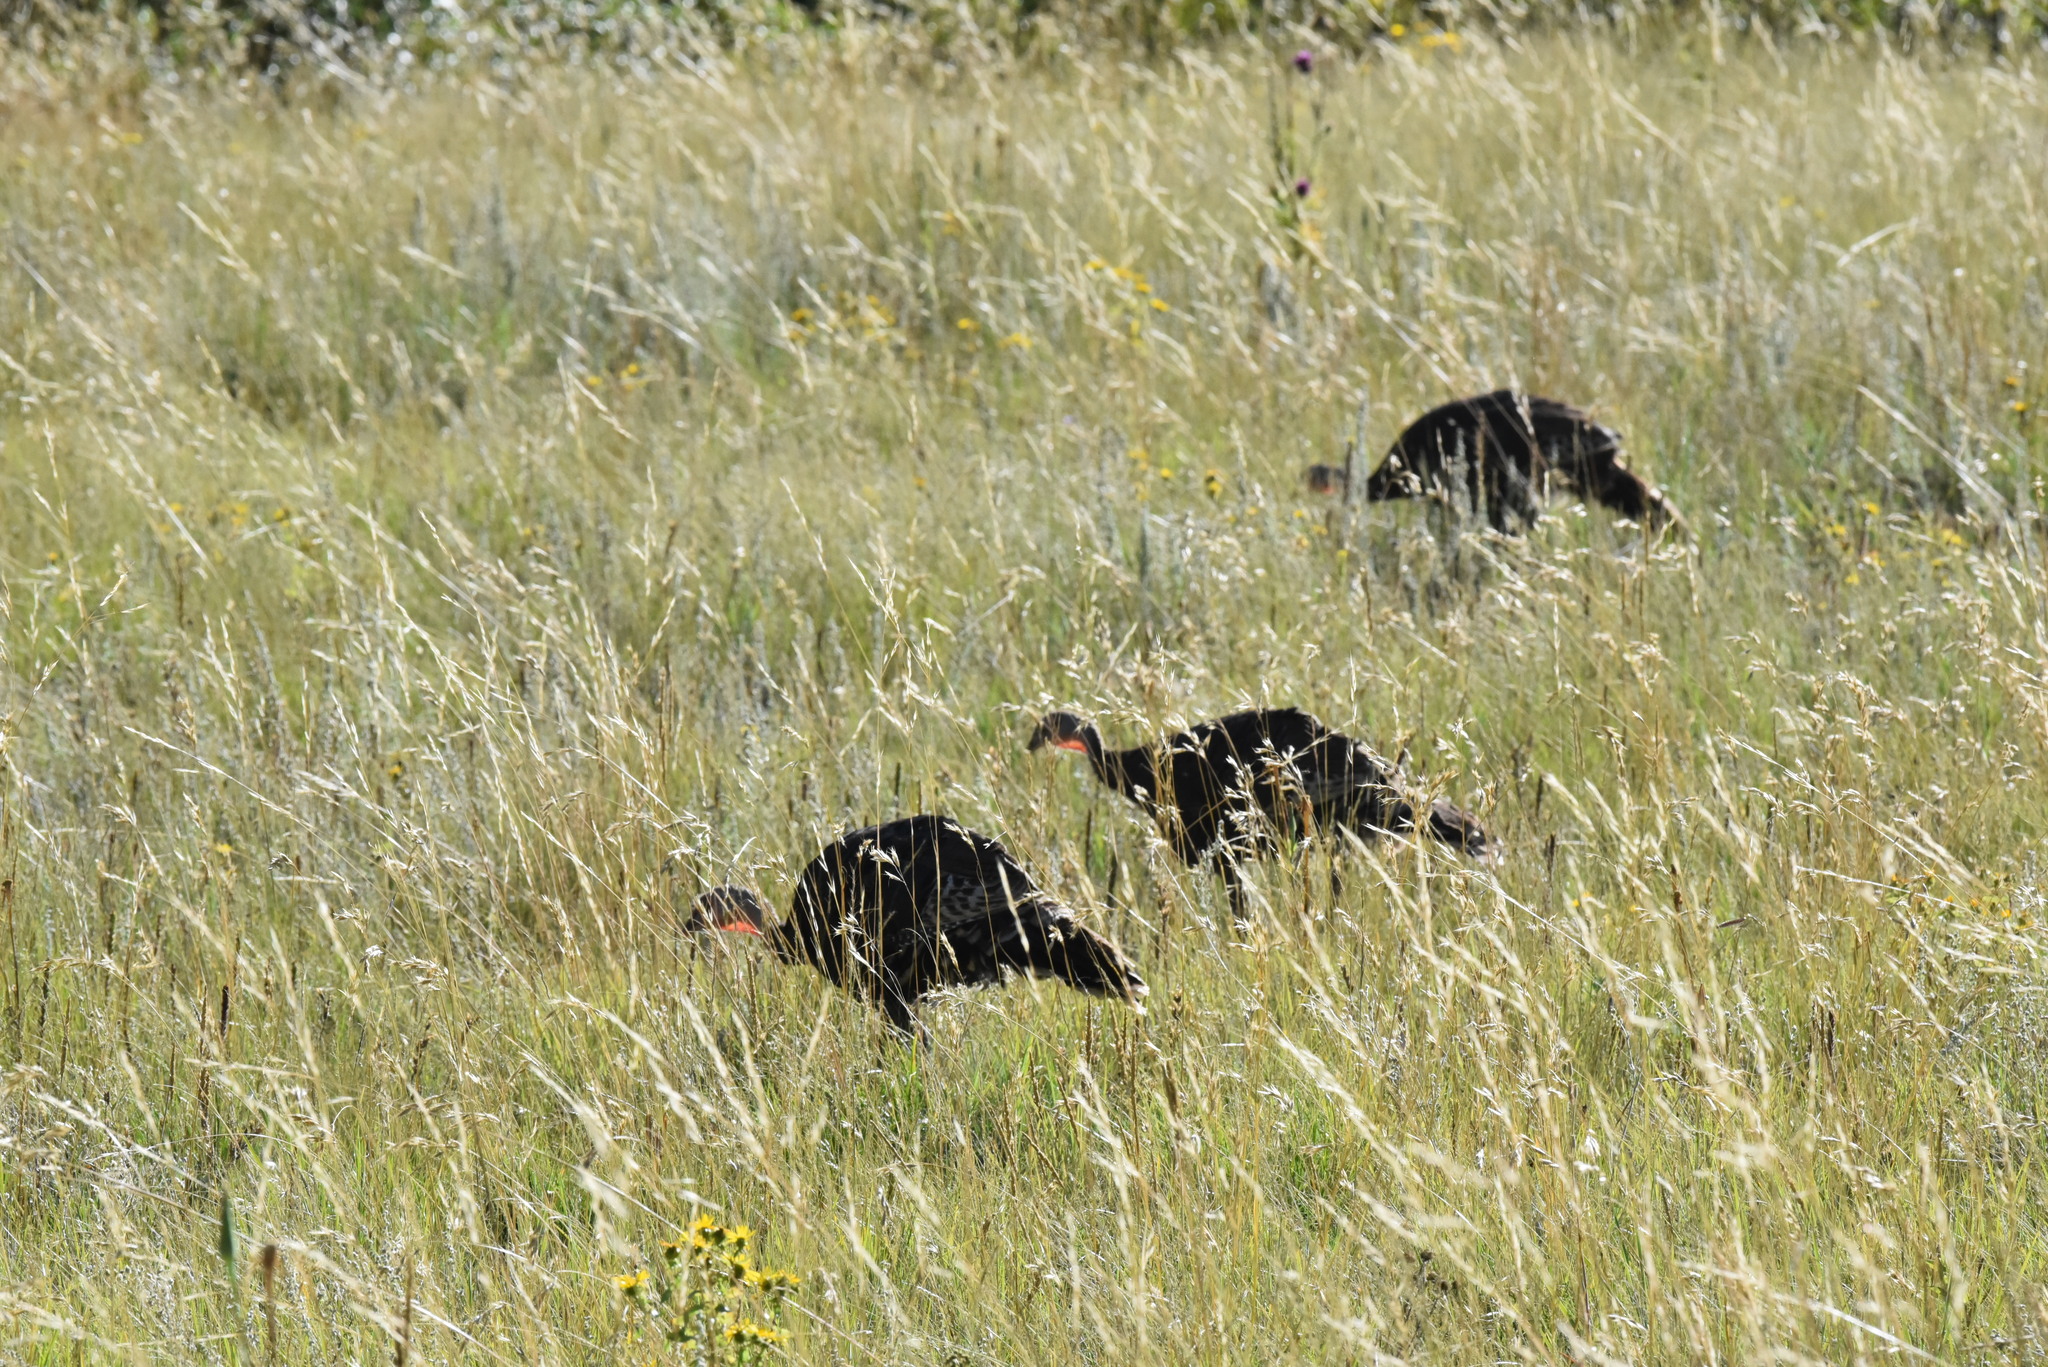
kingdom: Animalia
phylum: Chordata
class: Aves
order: Galliformes
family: Phasianidae
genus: Meleagris
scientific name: Meleagris gallopavo
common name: Wild turkey
